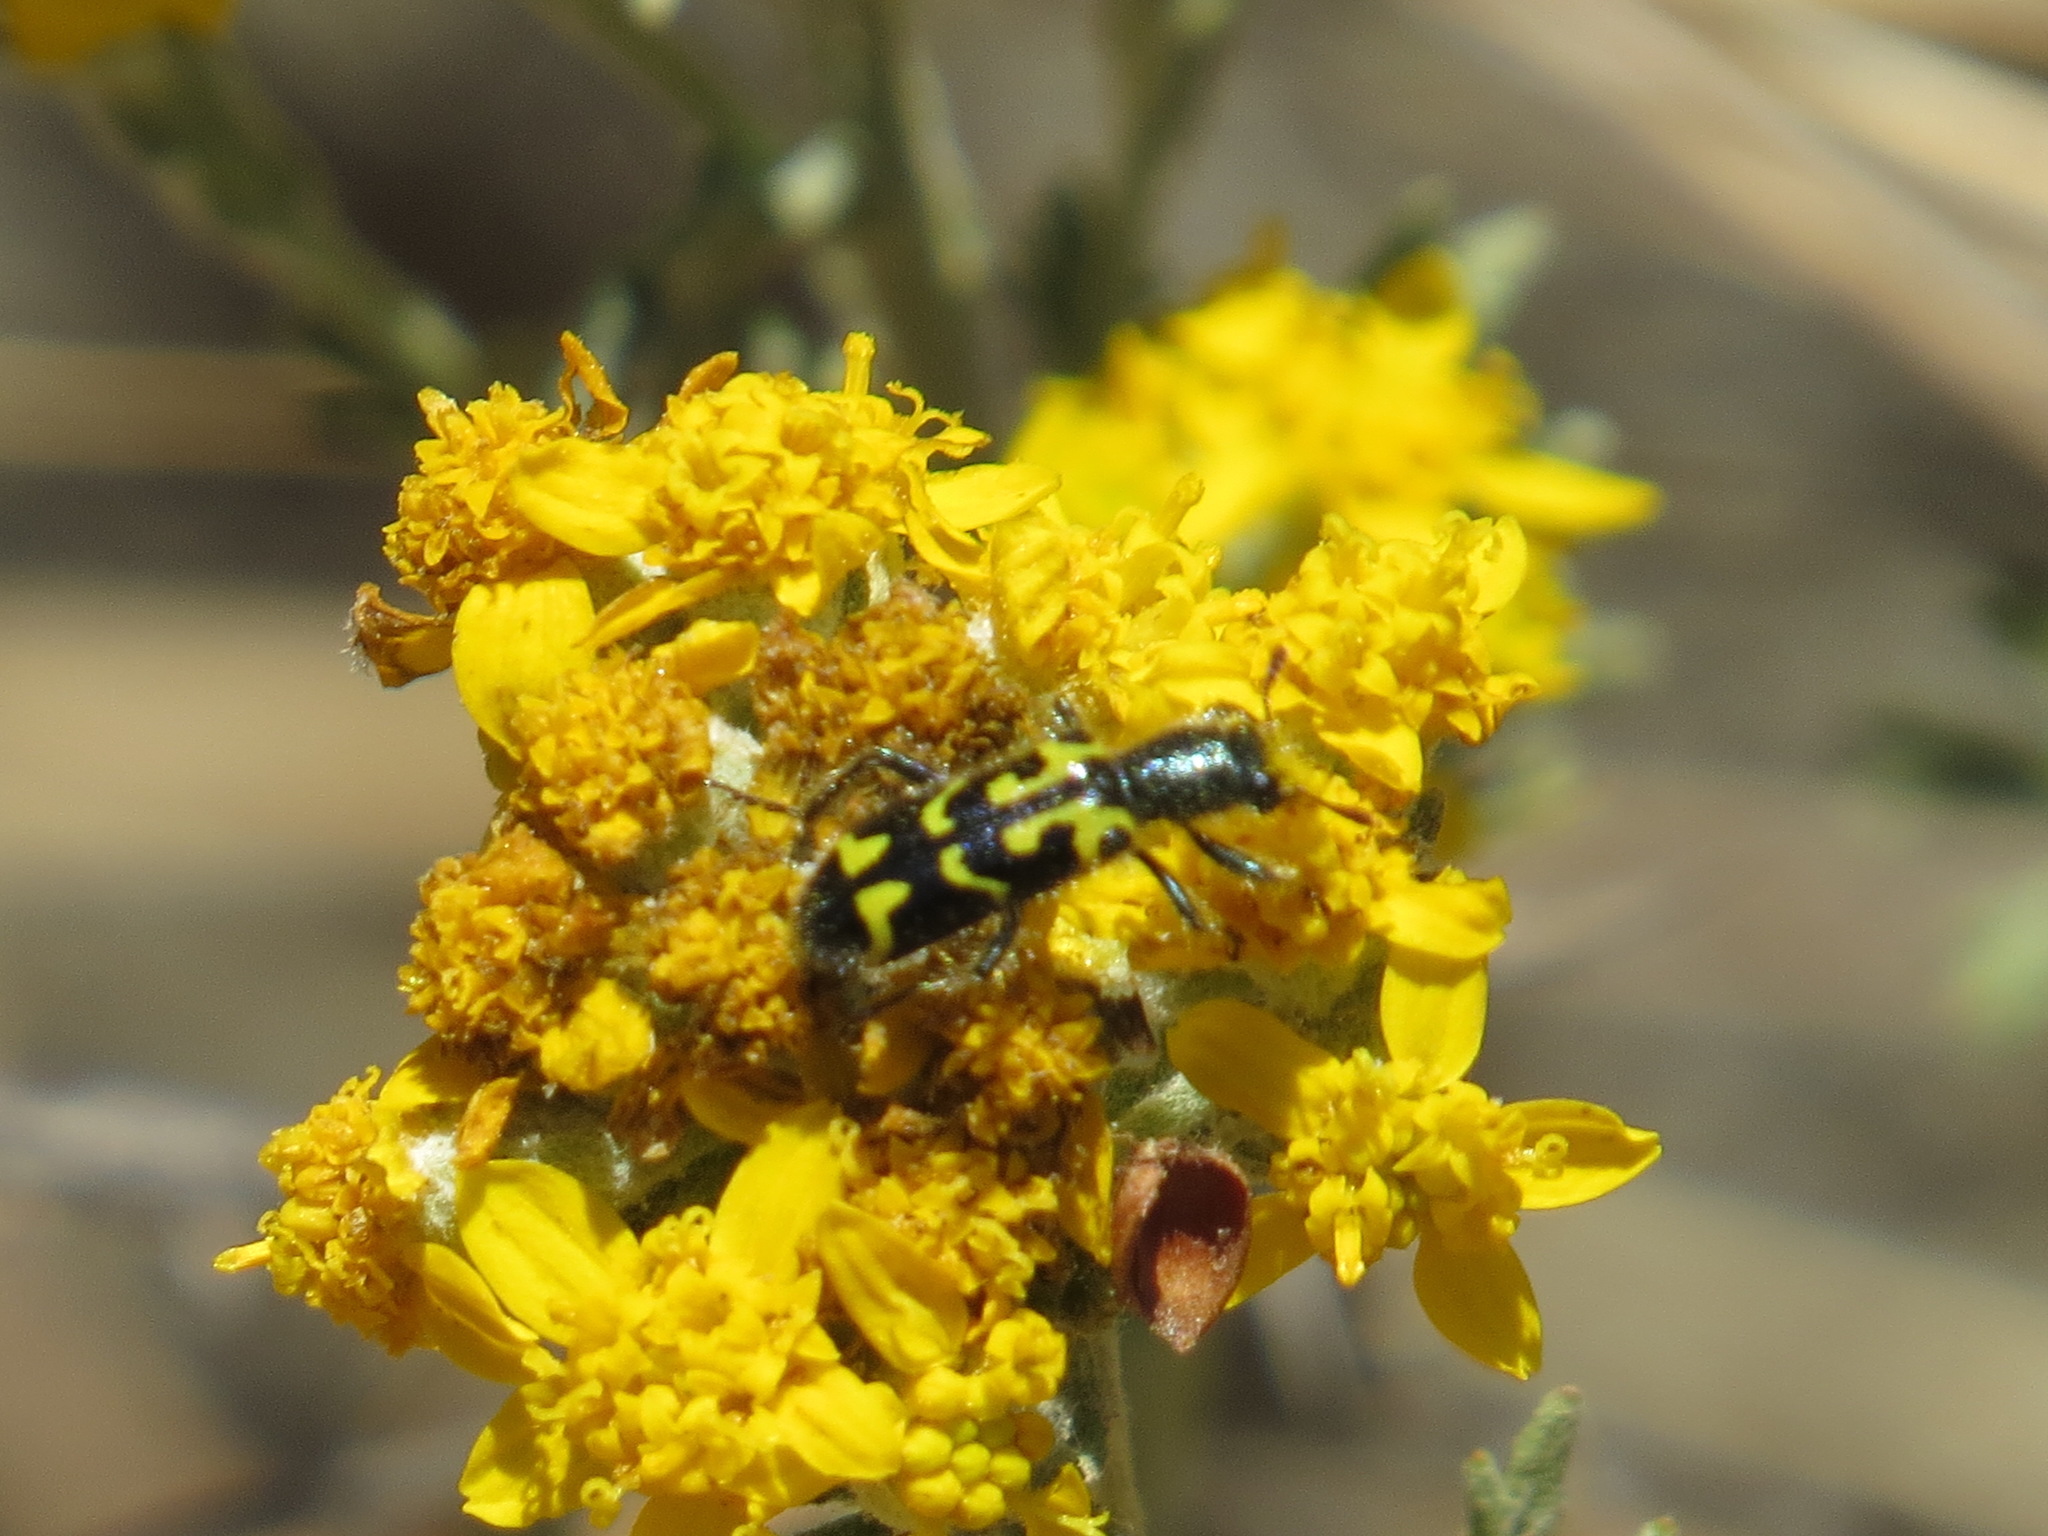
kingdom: Animalia
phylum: Arthropoda
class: Insecta
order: Coleoptera
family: Cleridae
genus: Trichodes
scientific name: Trichodes ornatus
